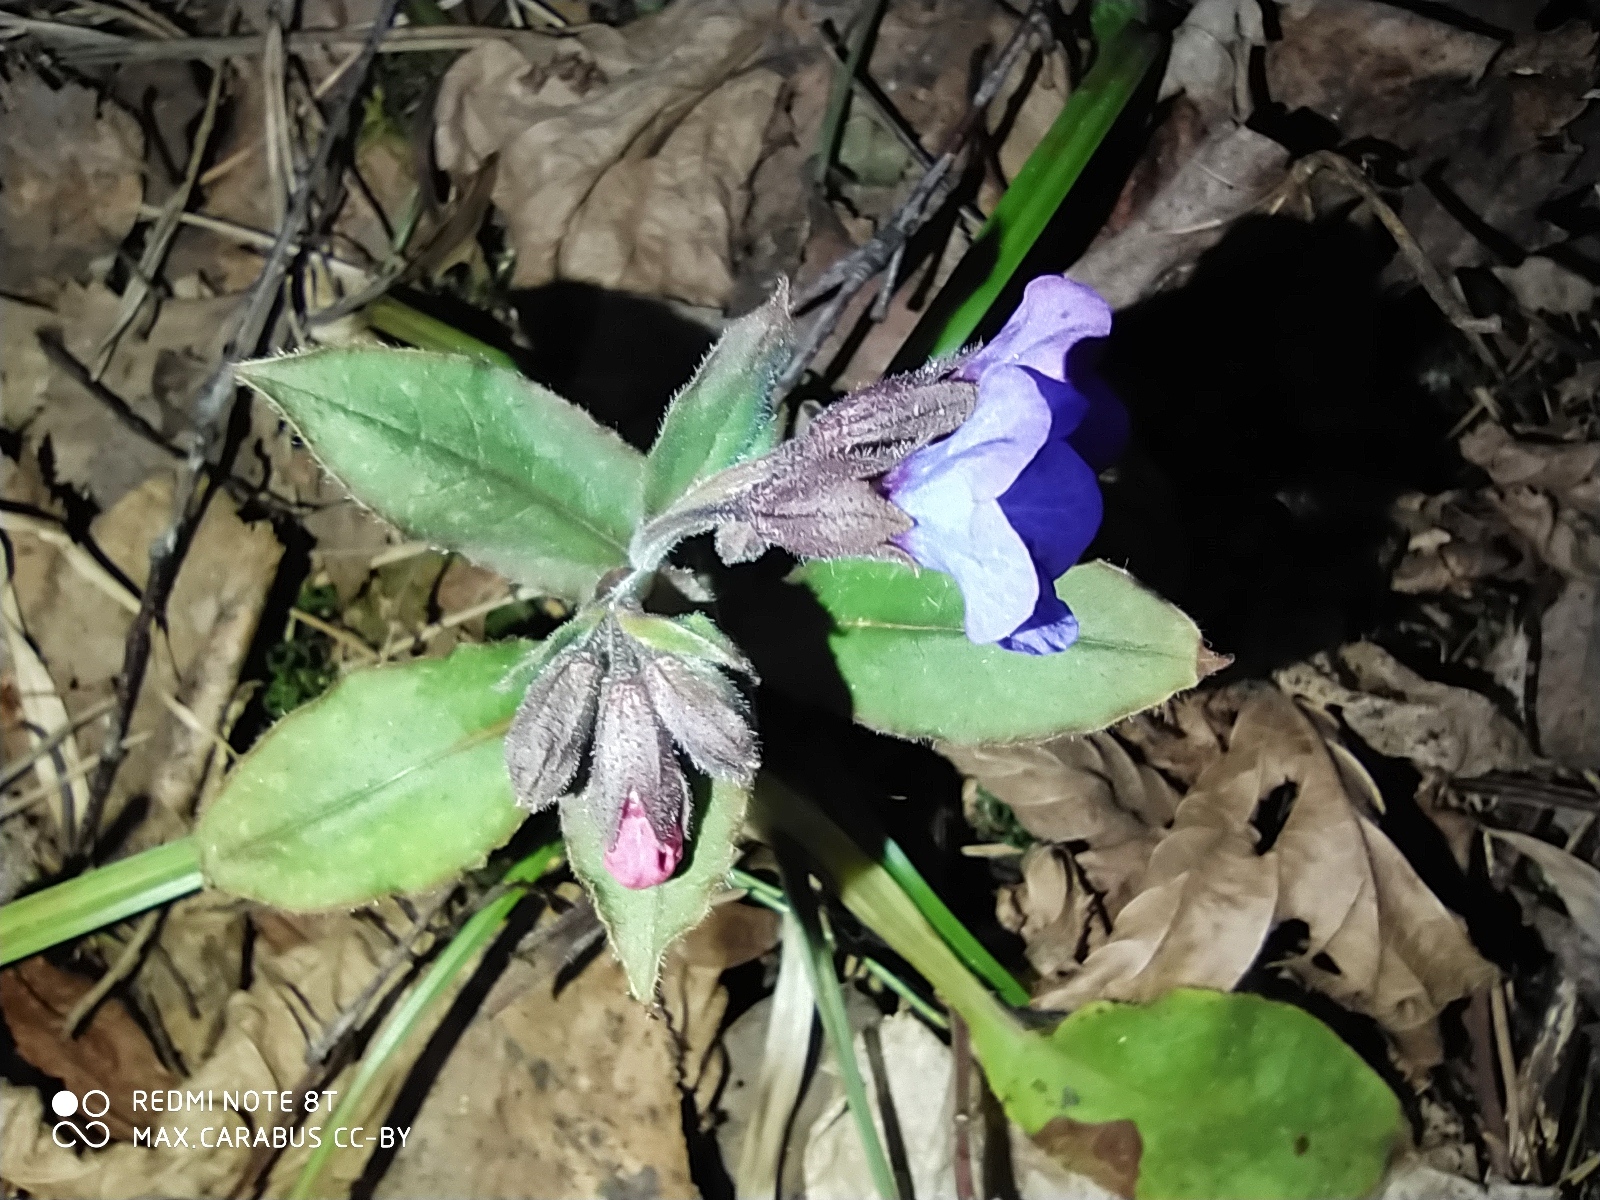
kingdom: Plantae
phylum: Tracheophyta
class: Magnoliopsida
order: Boraginales
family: Boraginaceae
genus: Pulmonaria
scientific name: Pulmonaria obscura
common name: Suffolk lungwort
